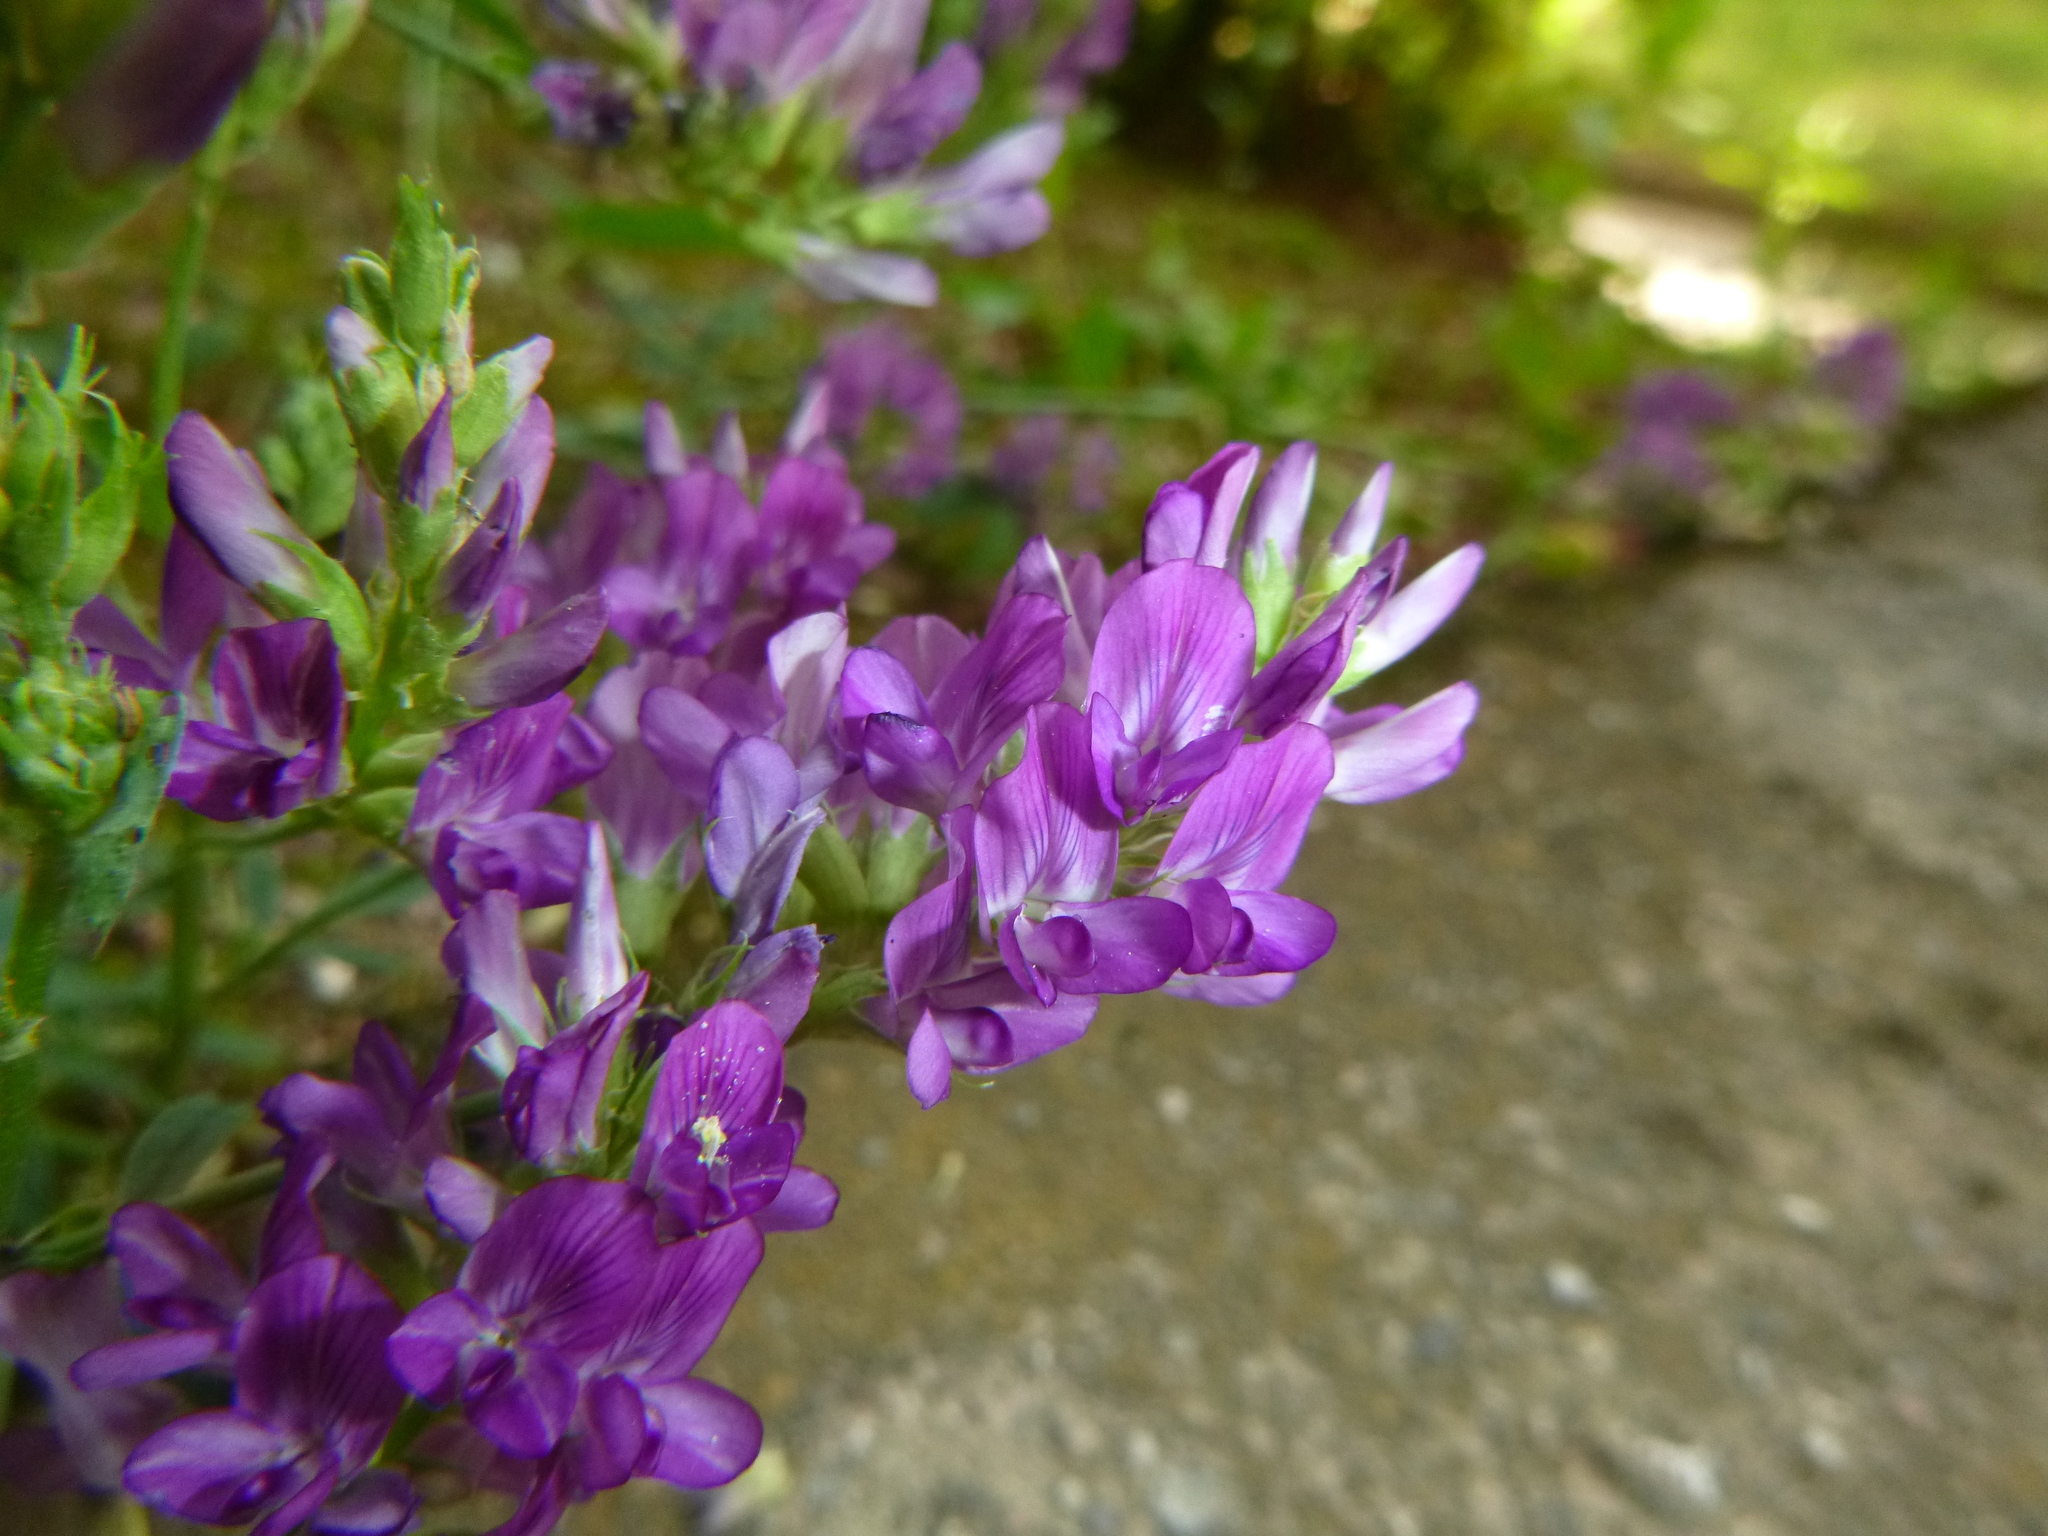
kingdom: Plantae
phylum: Tracheophyta
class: Magnoliopsida
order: Fabales
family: Fabaceae
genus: Medicago
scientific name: Medicago sativa
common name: Alfalfa
